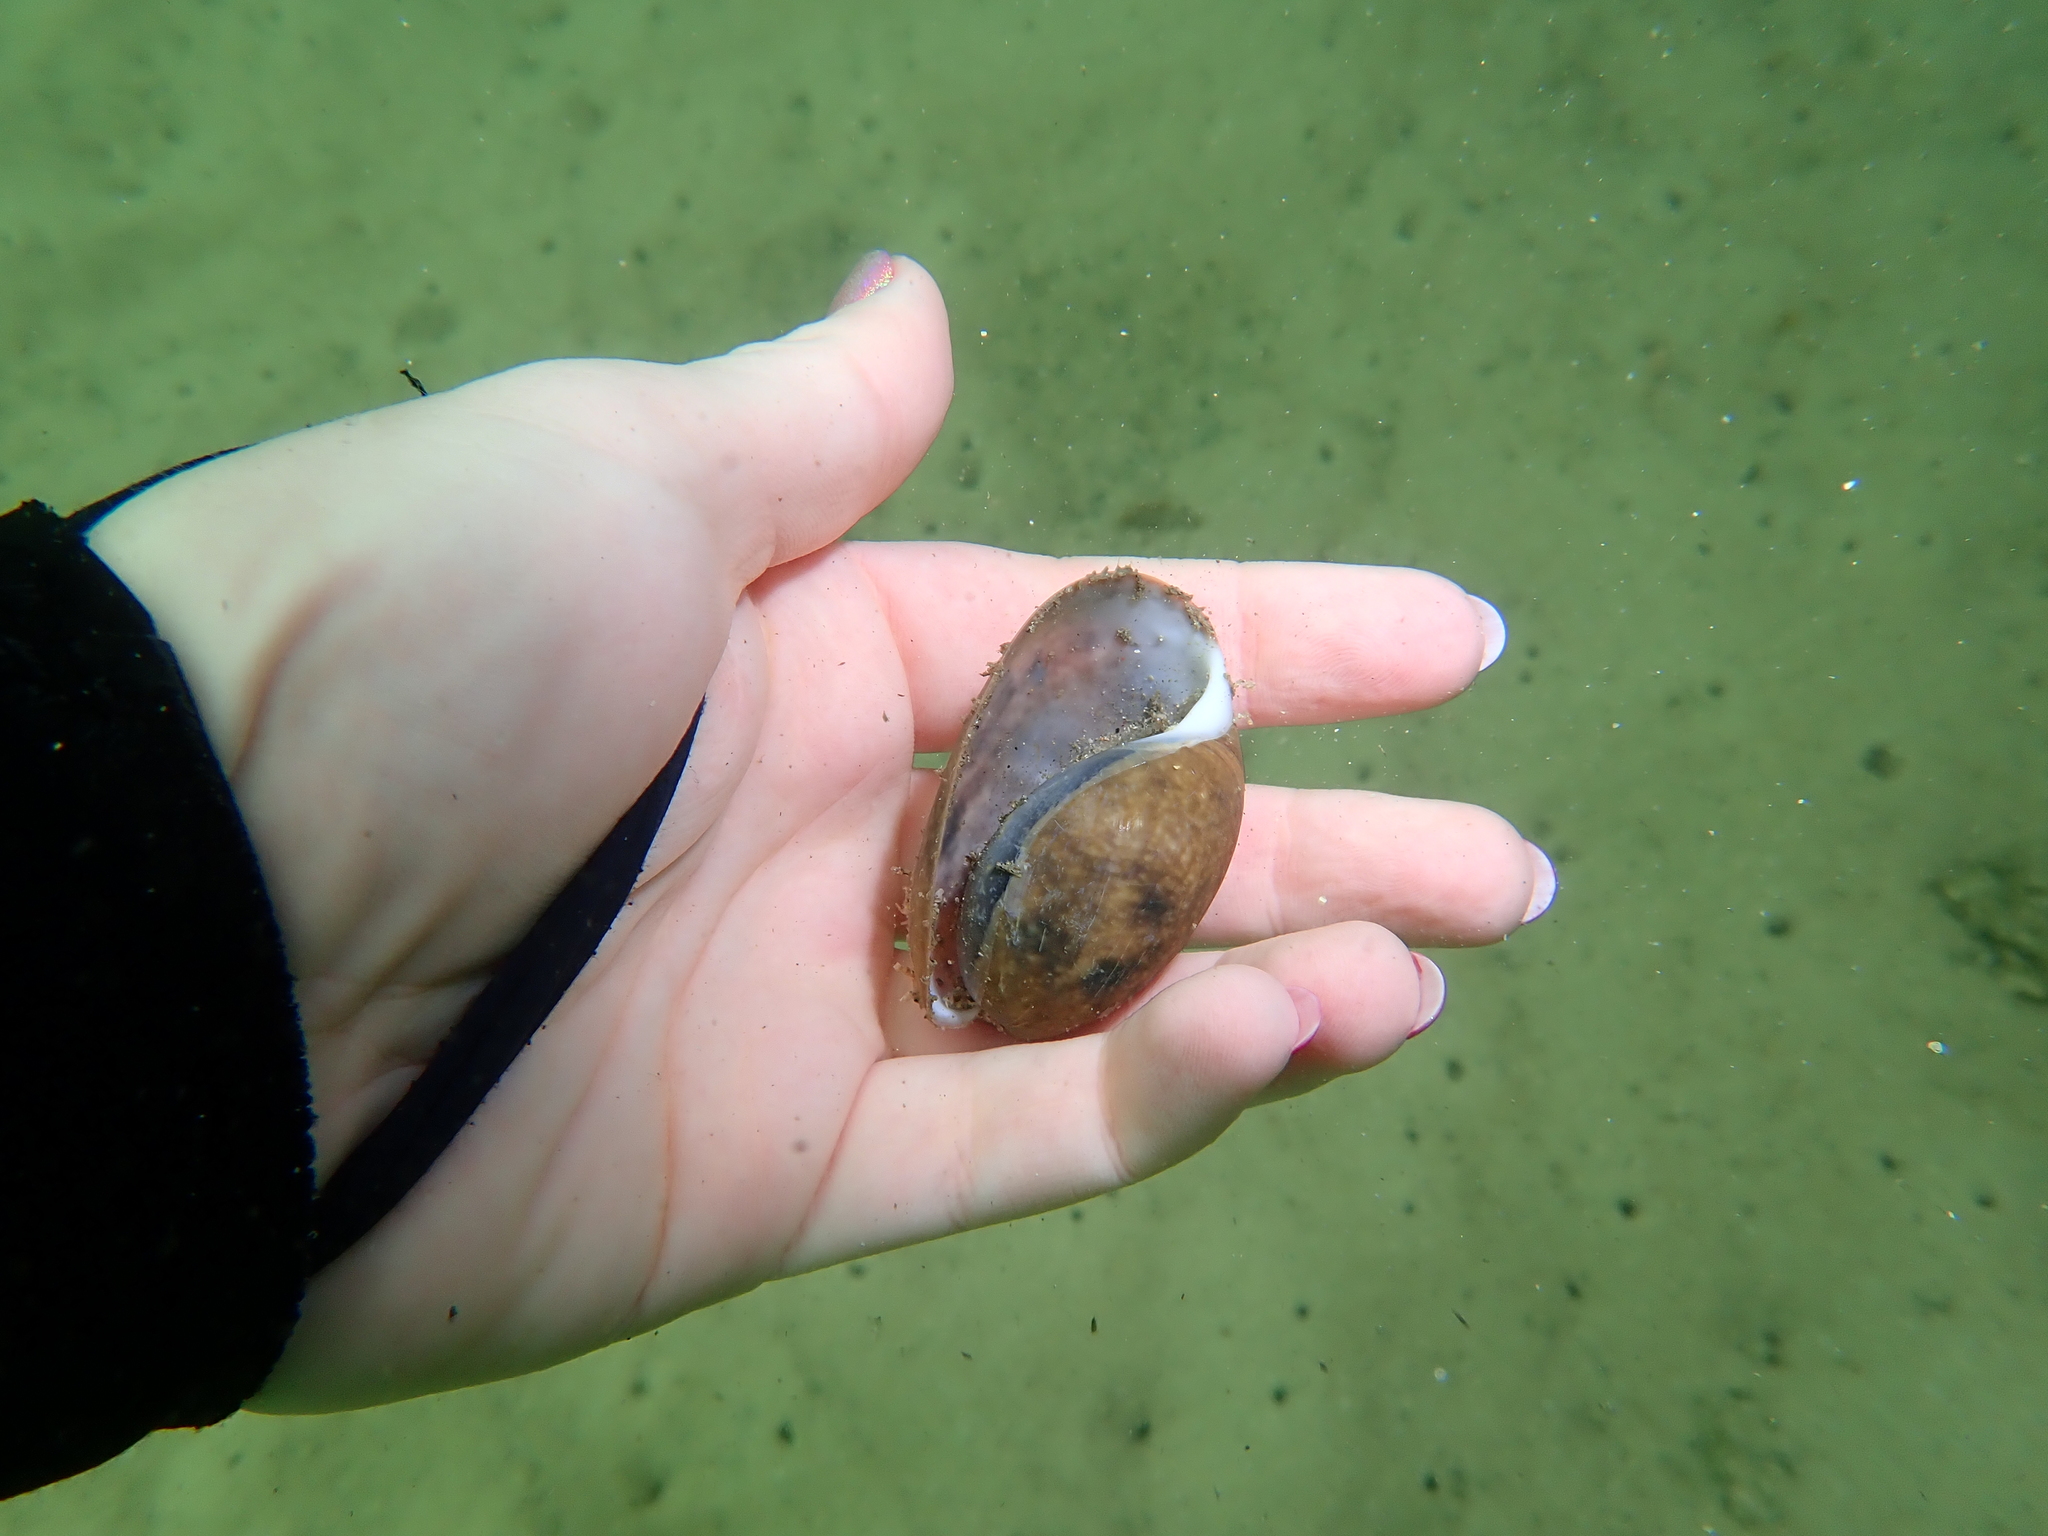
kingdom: Animalia
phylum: Mollusca
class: Gastropoda
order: Cephalaspidea
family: Bullidae
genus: Bulla
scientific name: Bulla quoyii
